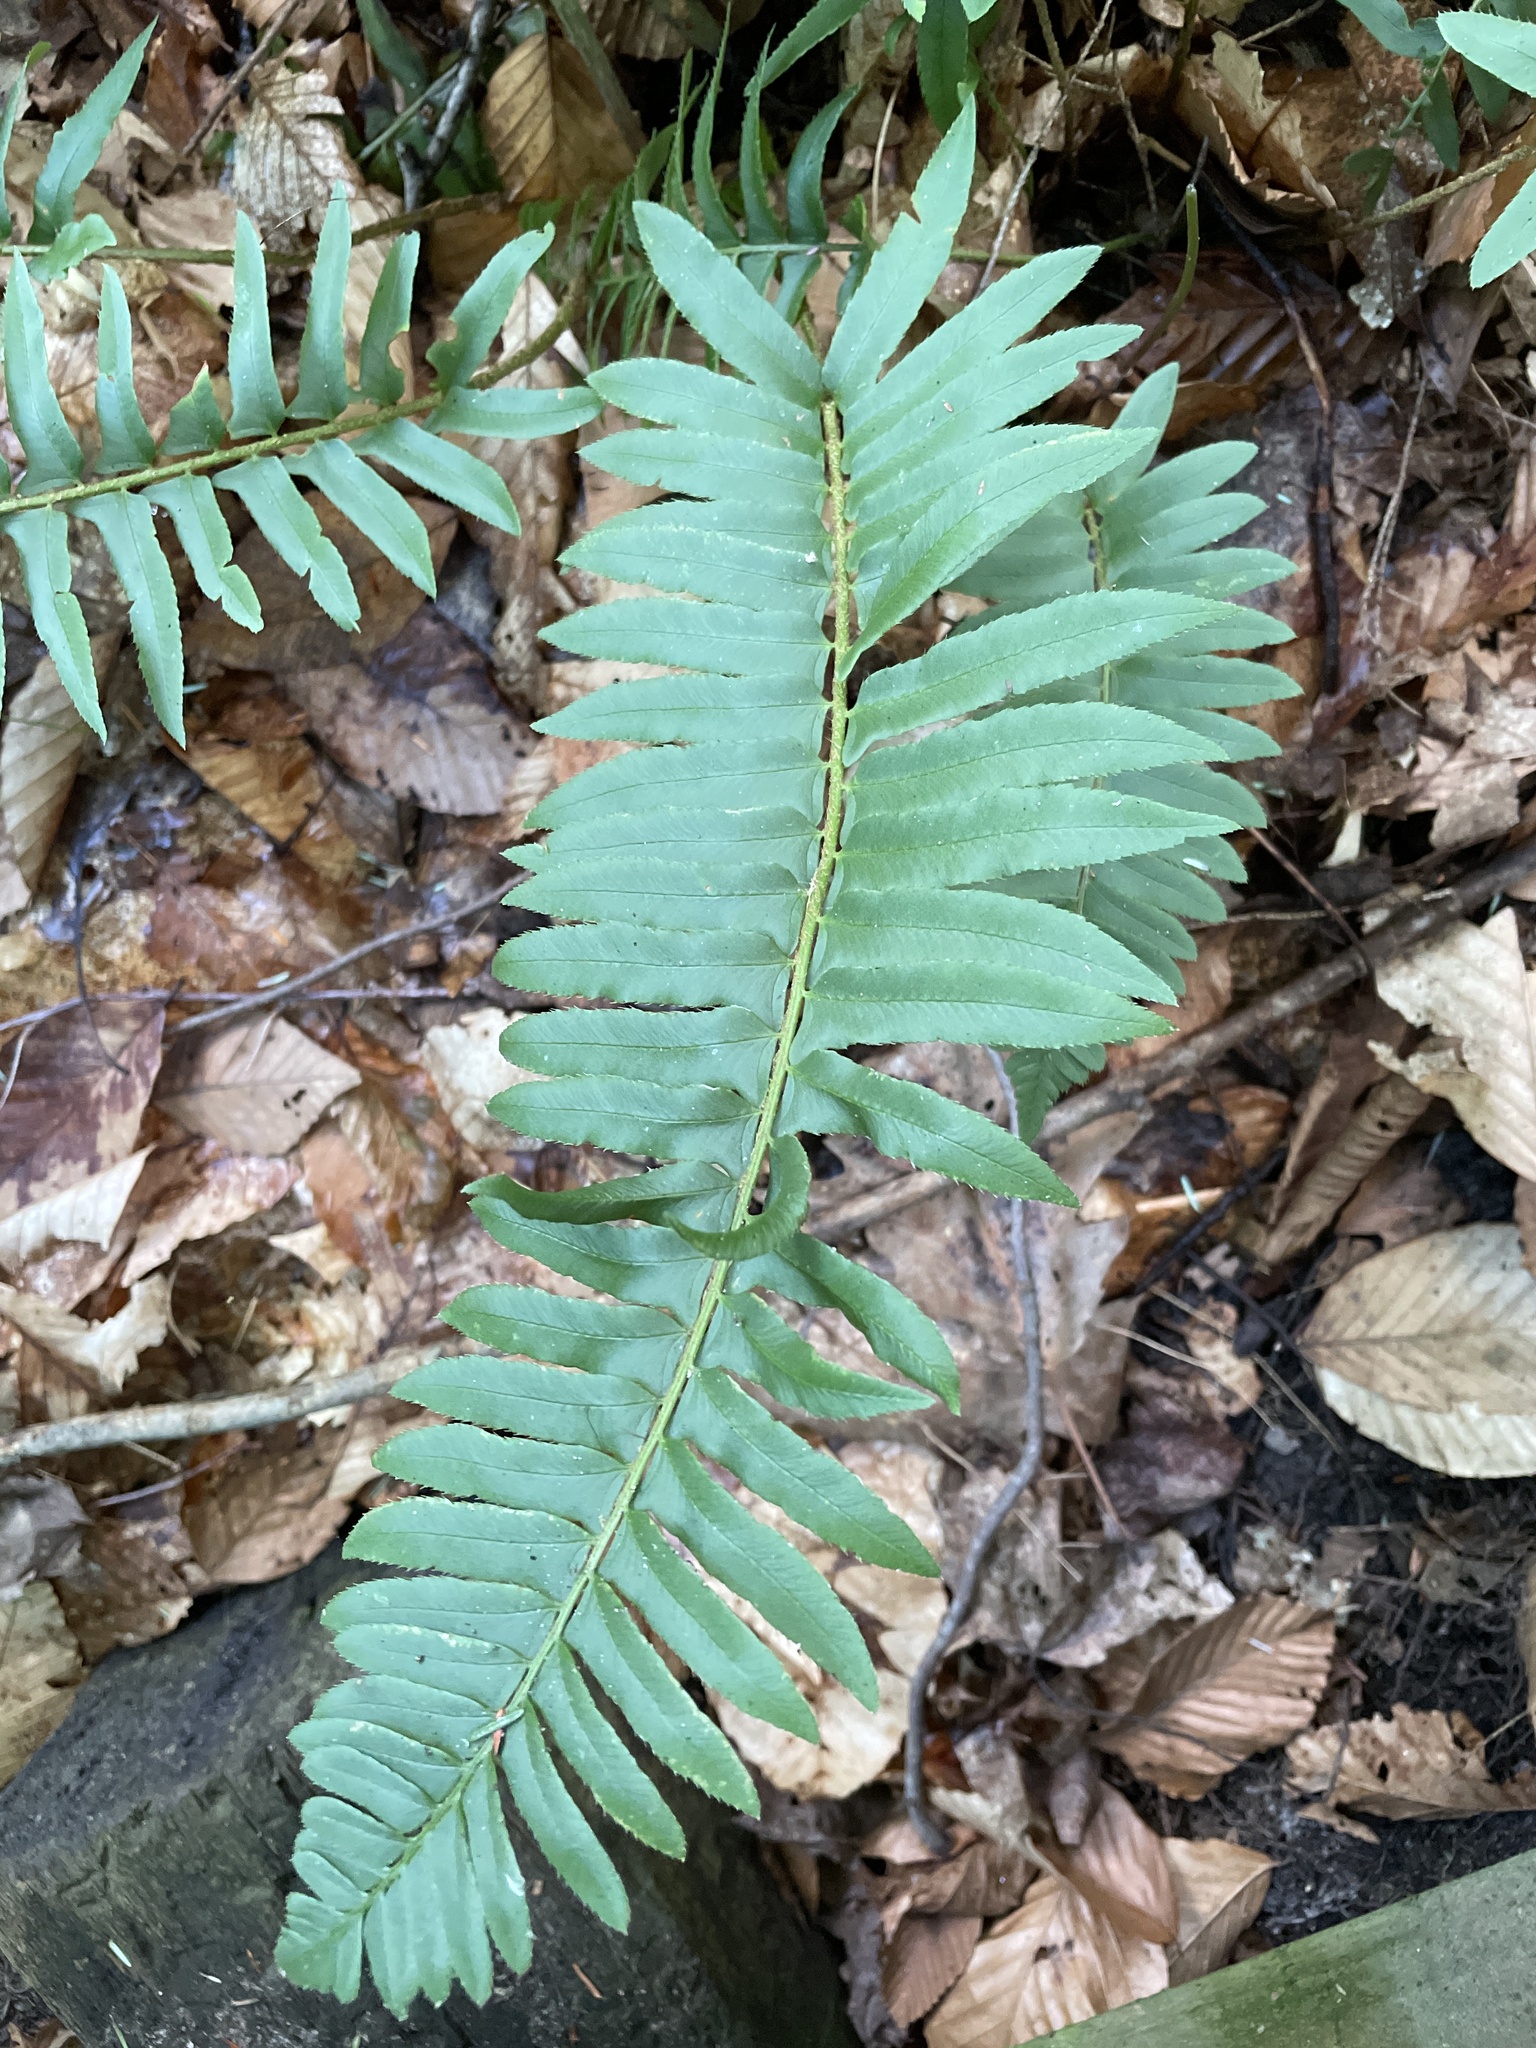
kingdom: Plantae
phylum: Tracheophyta
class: Polypodiopsida
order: Polypodiales
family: Dryopteridaceae
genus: Polystichum
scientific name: Polystichum acrostichoides
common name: Christmas fern
